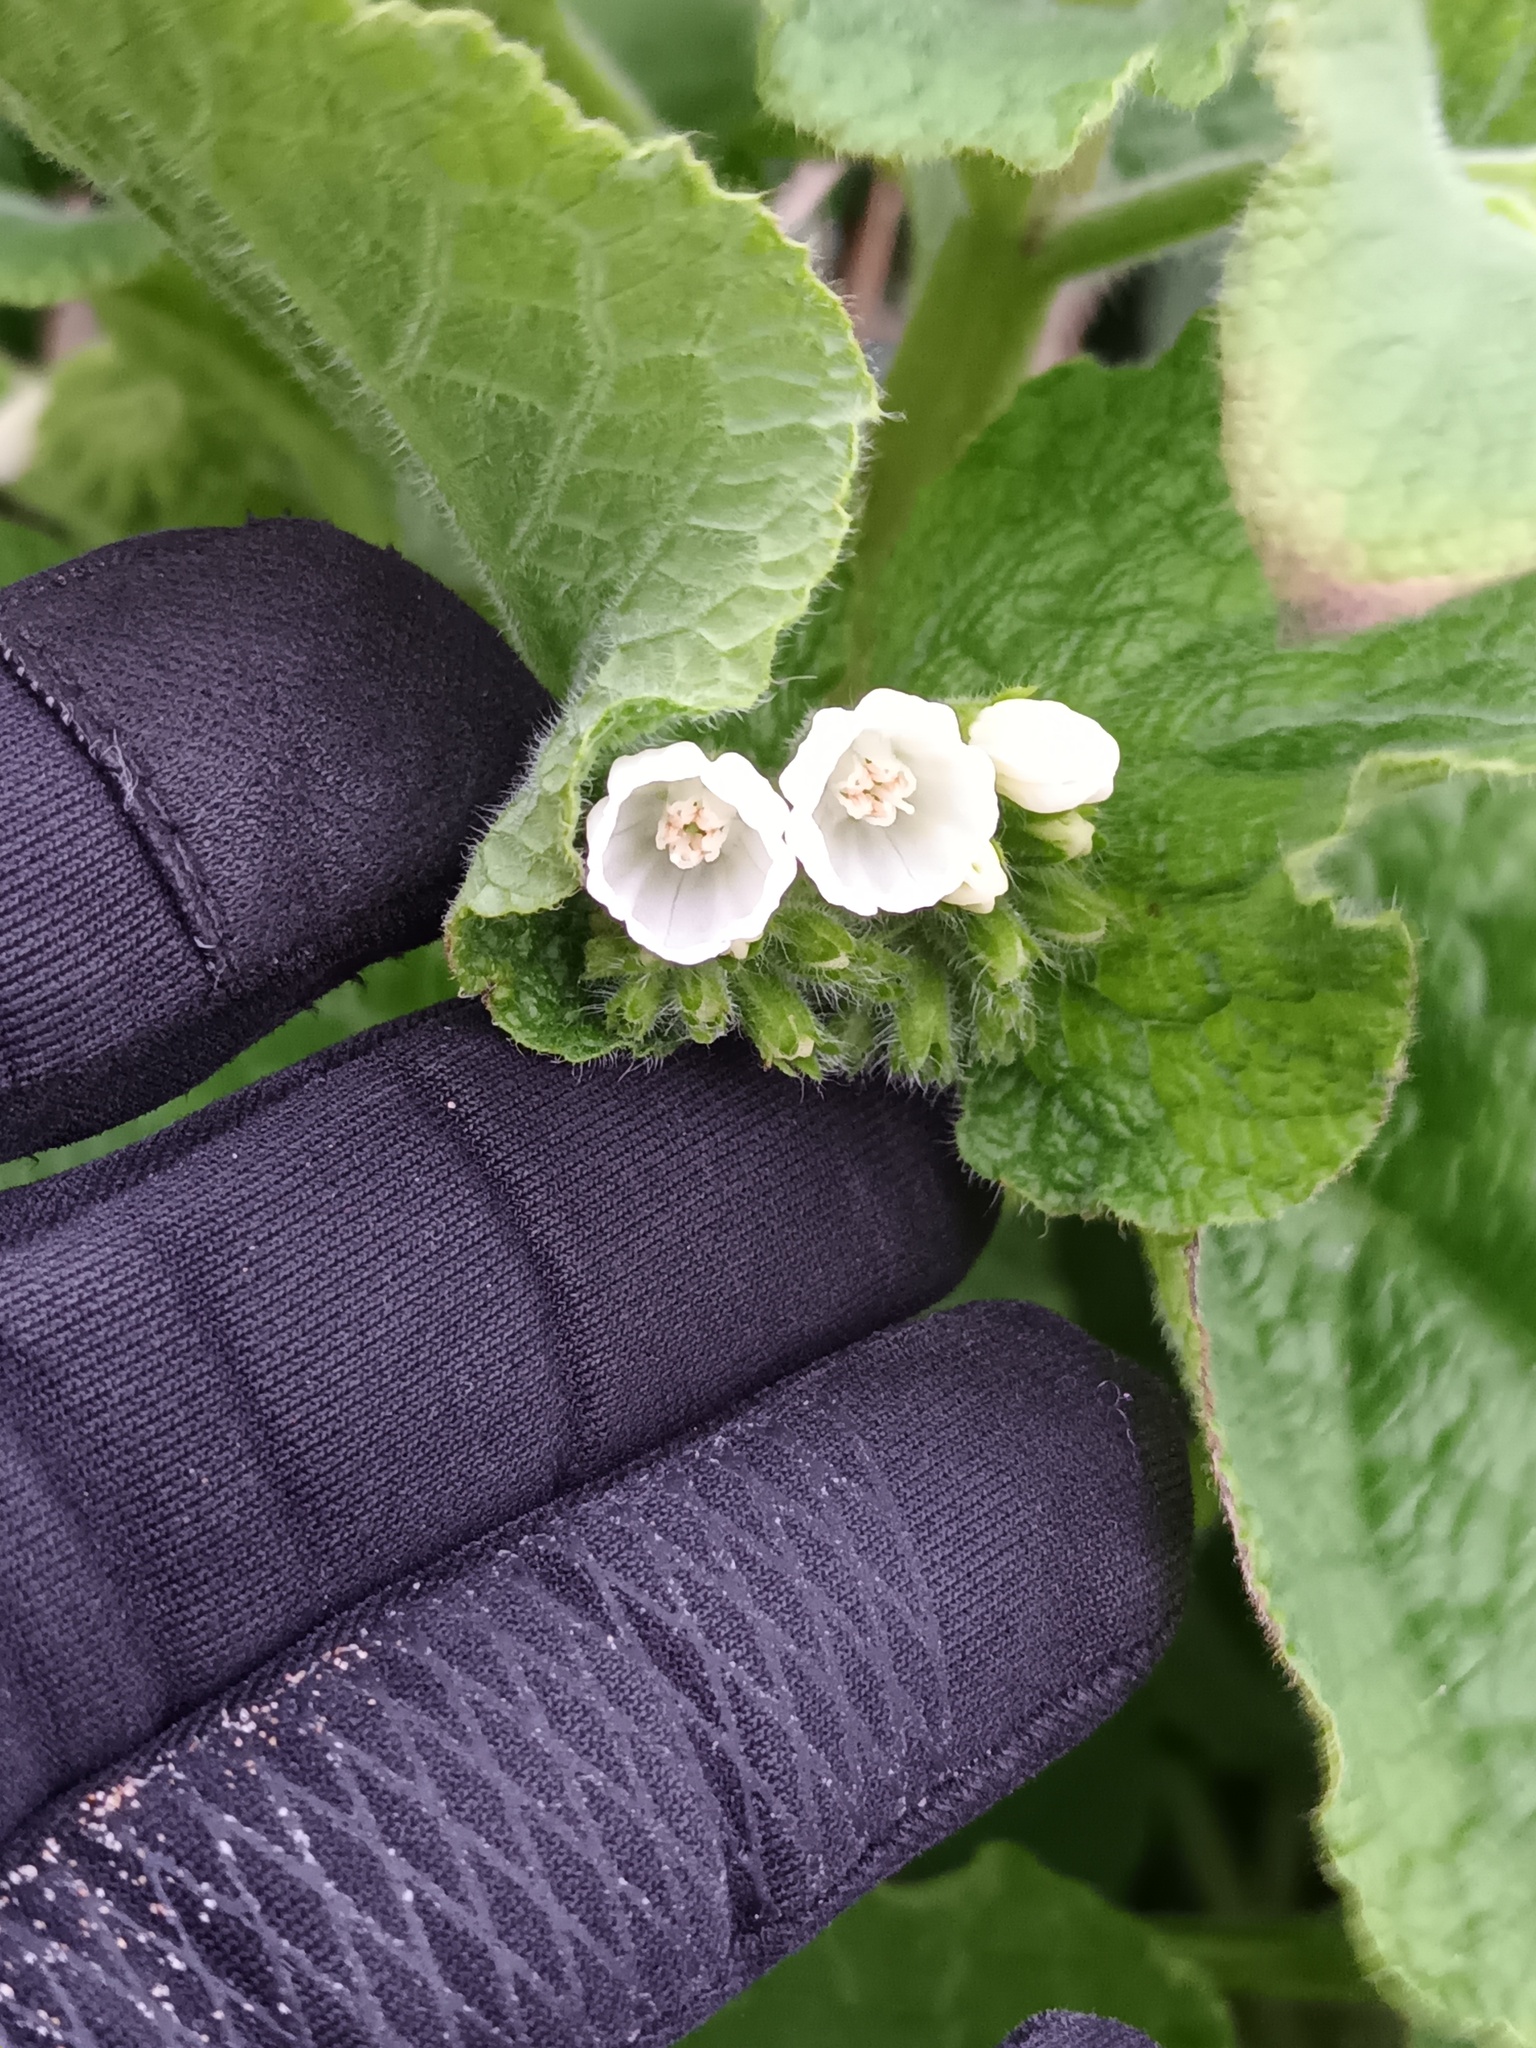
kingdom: Plantae
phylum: Tracheophyta
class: Magnoliopsida
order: Boraginales
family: Boraginaceae
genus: Symphytum
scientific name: Symphytum orientale
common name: White comfrey
